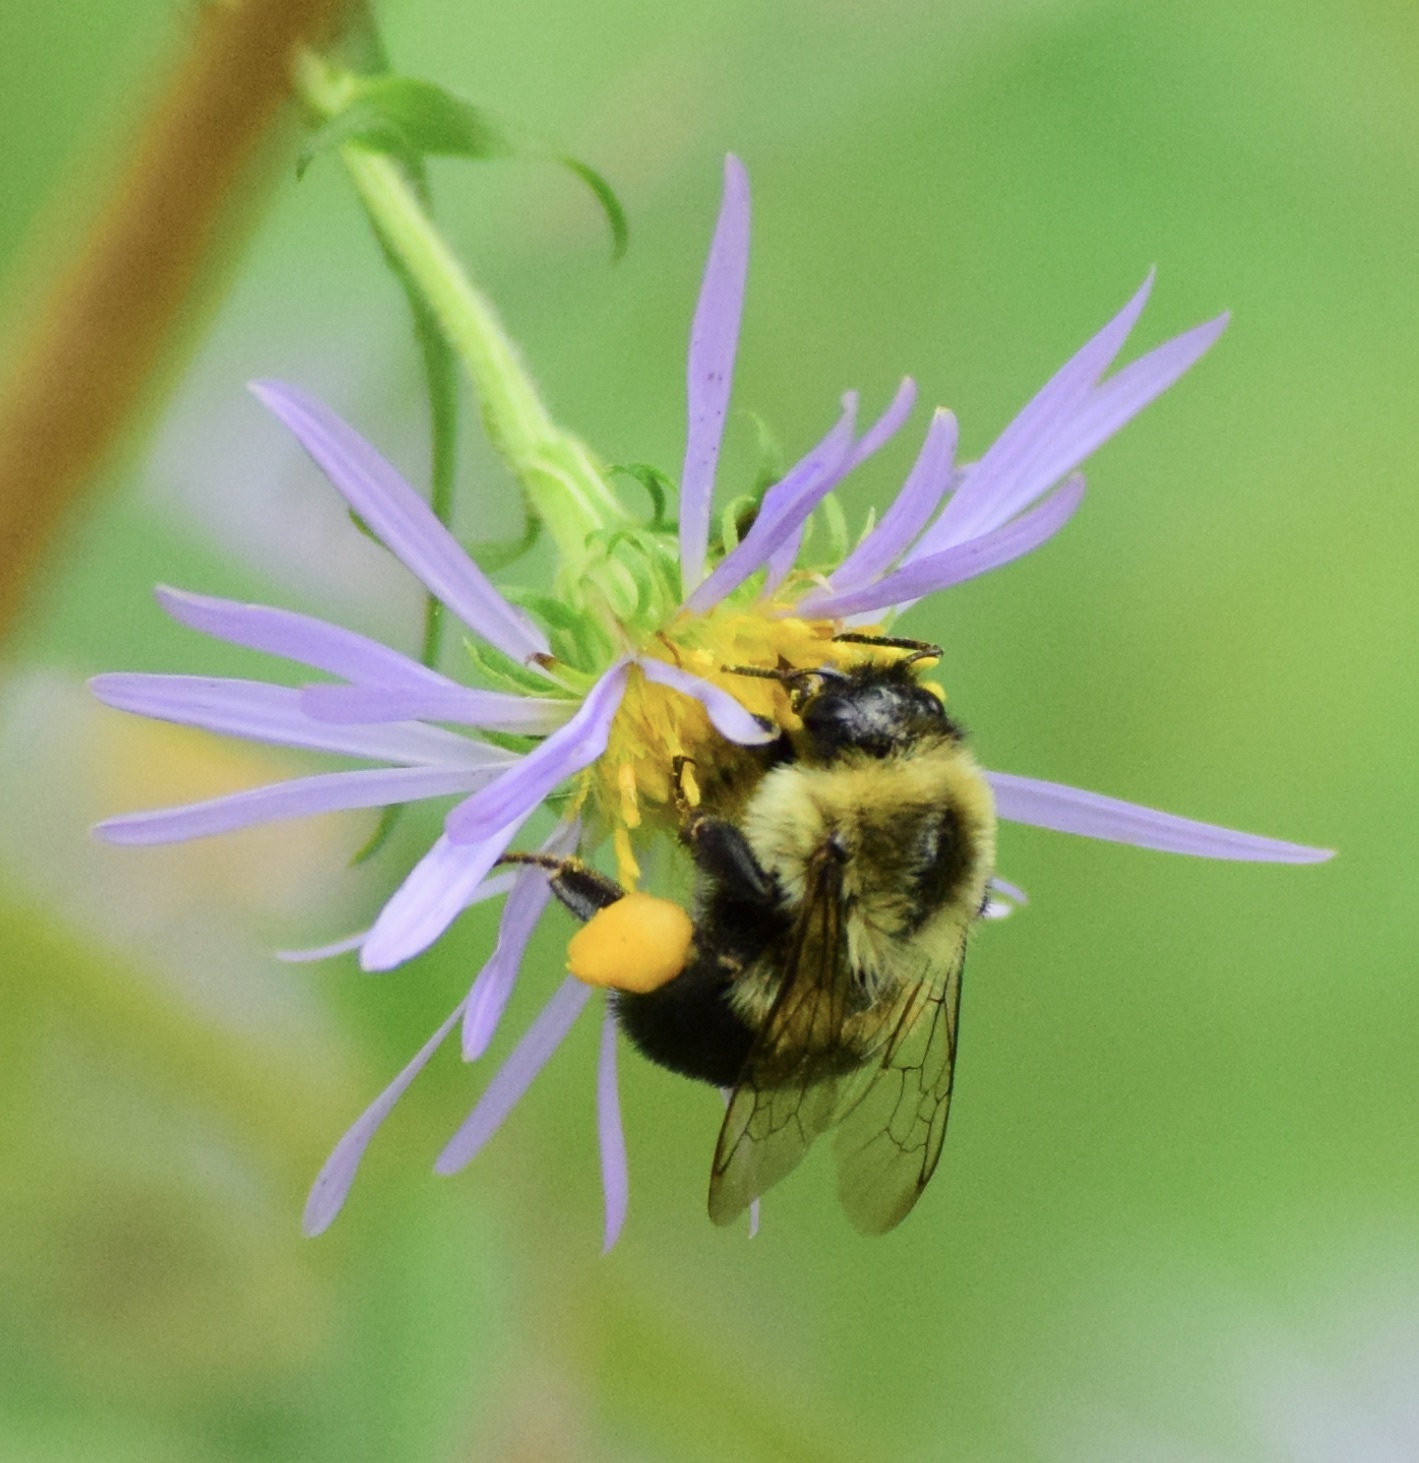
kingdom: Animalia
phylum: Arthropoda
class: Insecta
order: Hymenoptera
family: Apidae
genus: Bombus
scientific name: Bombus impatiens
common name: Common eastern bumble bee
